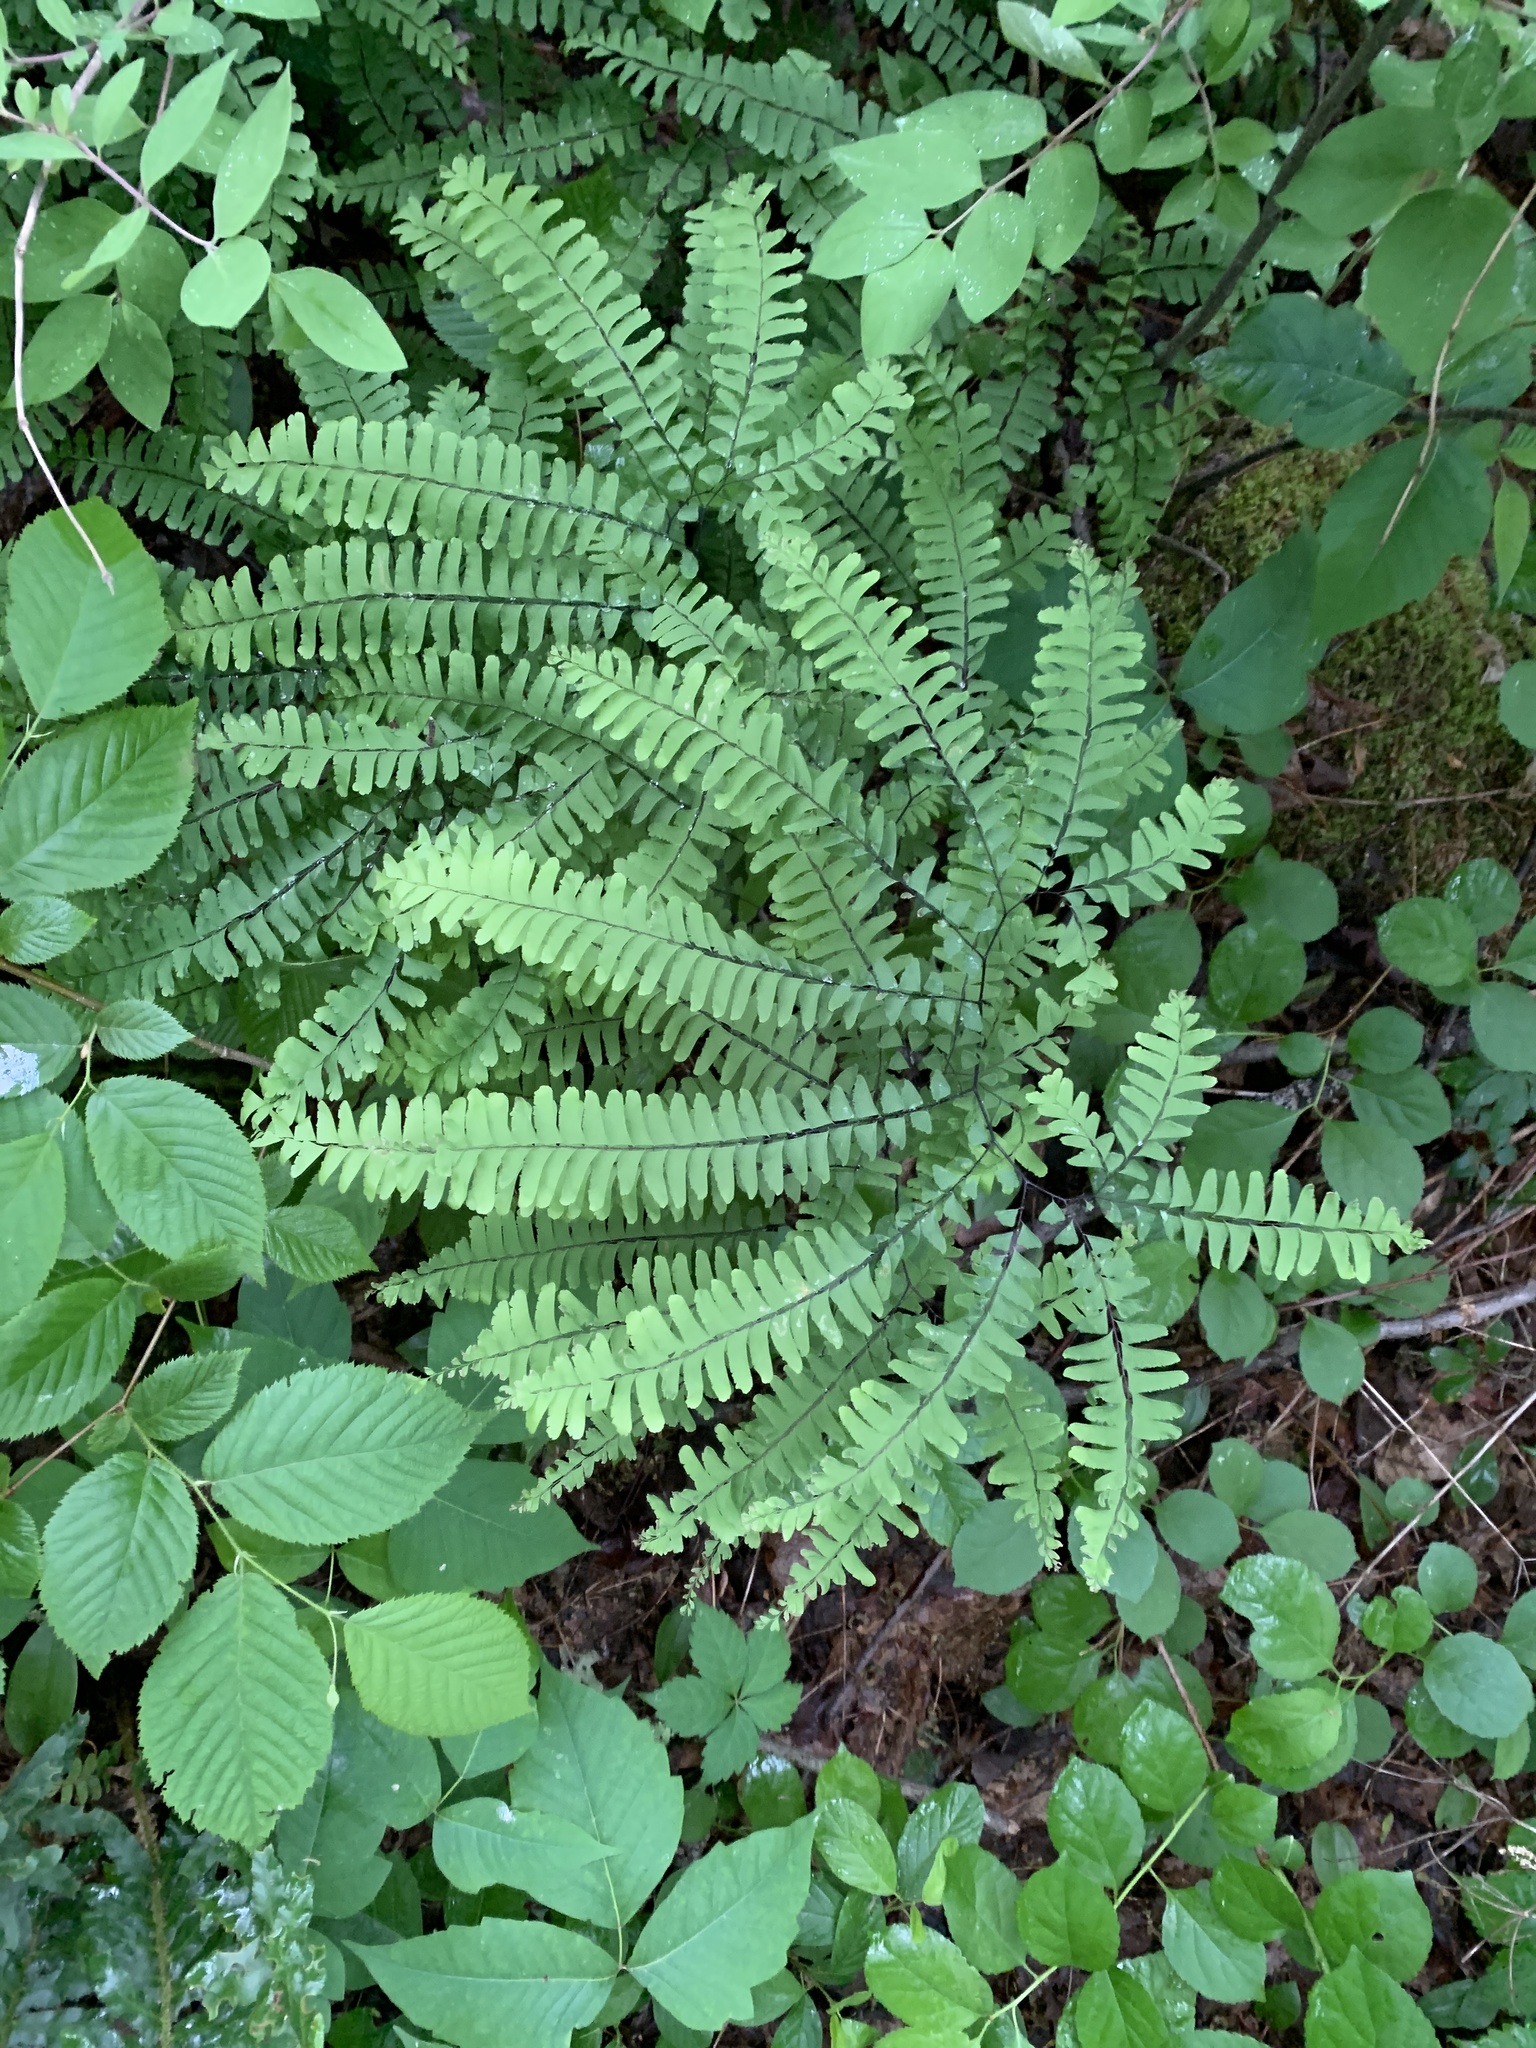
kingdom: Plantae
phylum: Tracheophyta
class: Polypodiopsida
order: Polypodiales
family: Pteridaceae
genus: Adiantum
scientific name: Adiantum pedatum
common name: Five-finger fern
